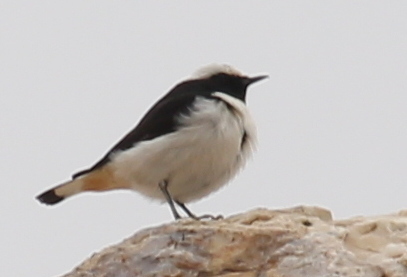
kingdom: Animalia
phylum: Chordata
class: Aves
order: Passeriformes
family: Muscicapidae
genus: Oenanthe
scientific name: Oenanthe lugens
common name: Mourning wheatear
